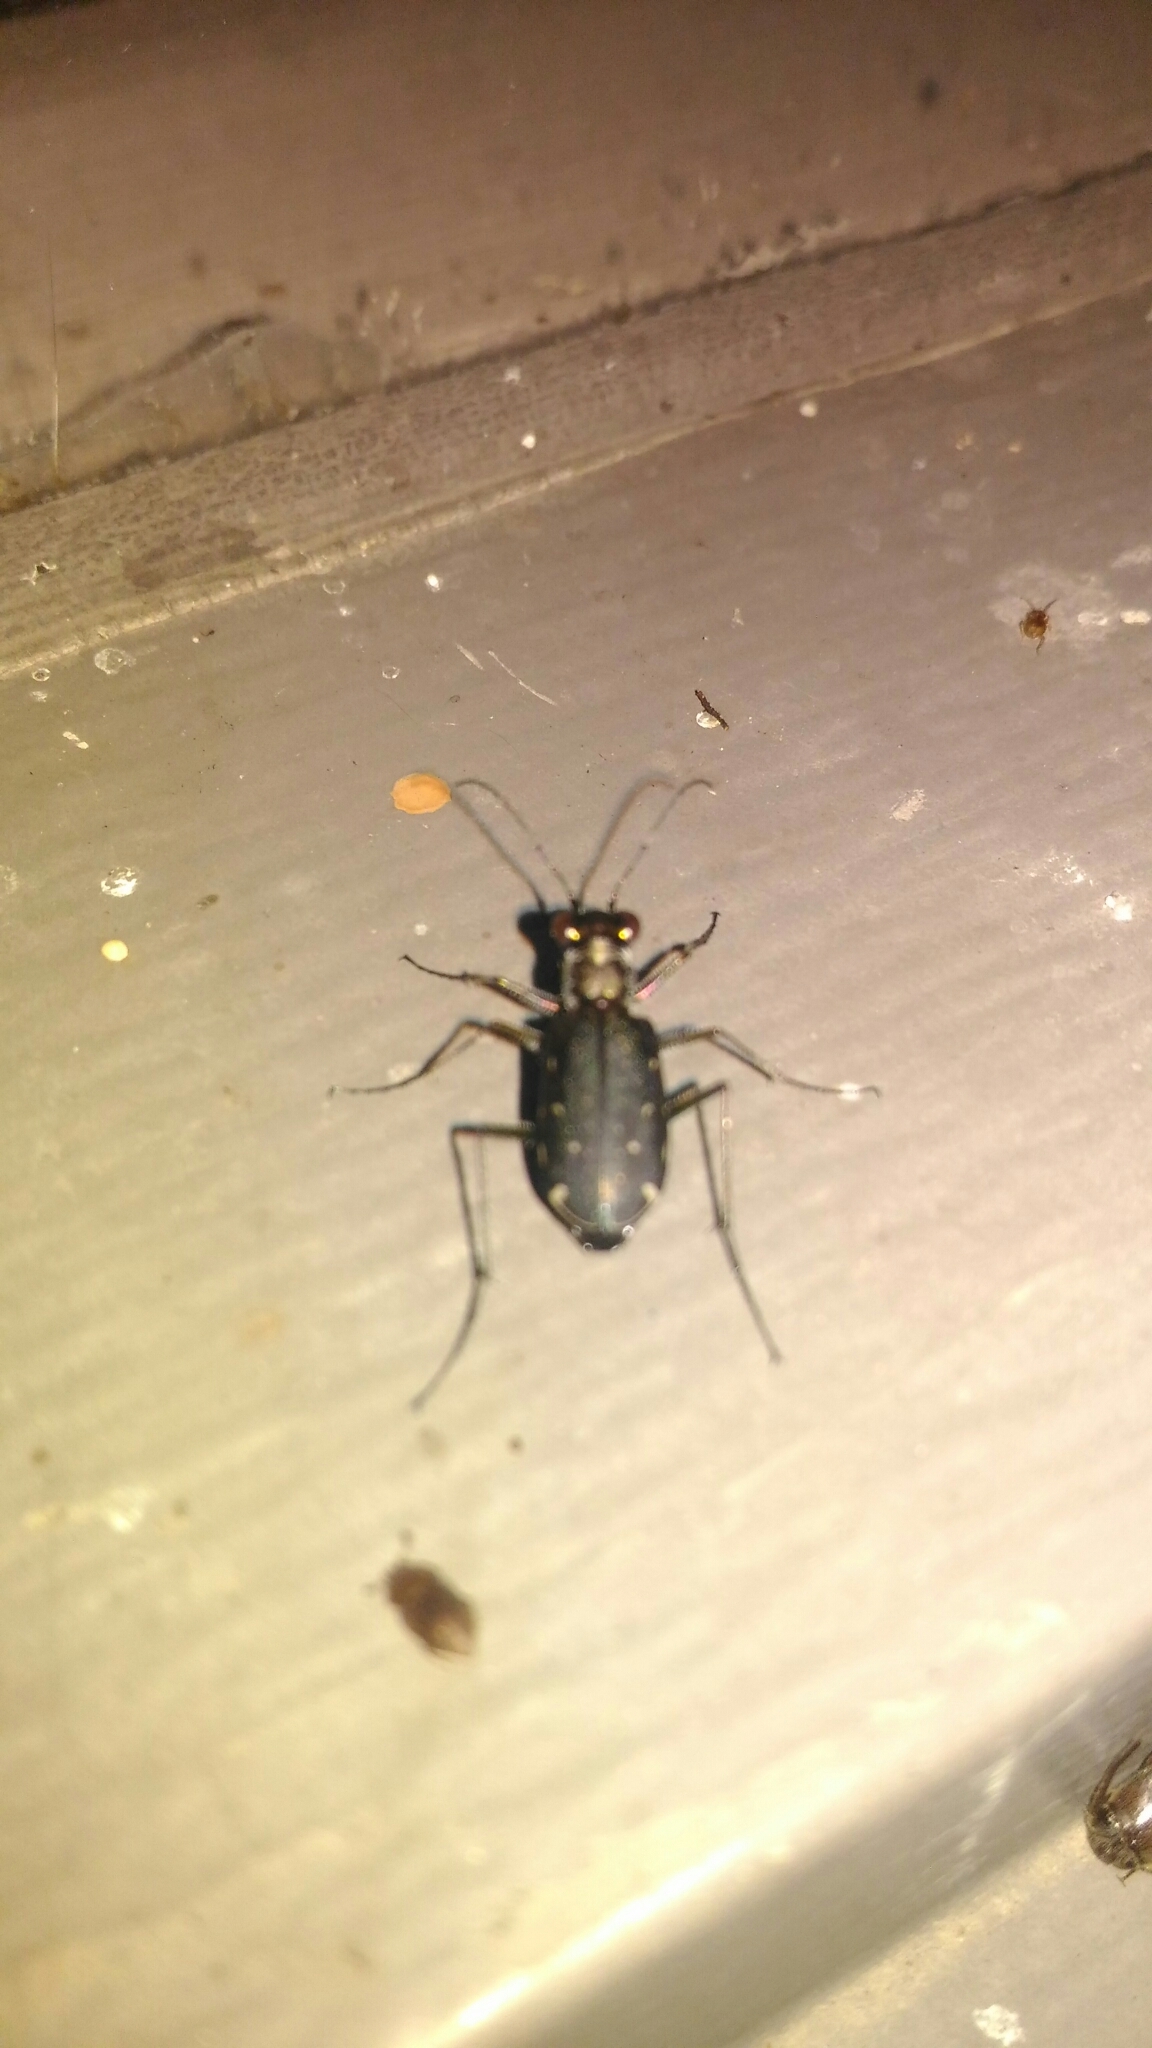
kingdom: Animalia
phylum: Arthropoda
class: Insecta
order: Coleoptera
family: Carabidae
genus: Cicindela
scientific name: Cicindela punctulata
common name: Punctured tiger beetle
